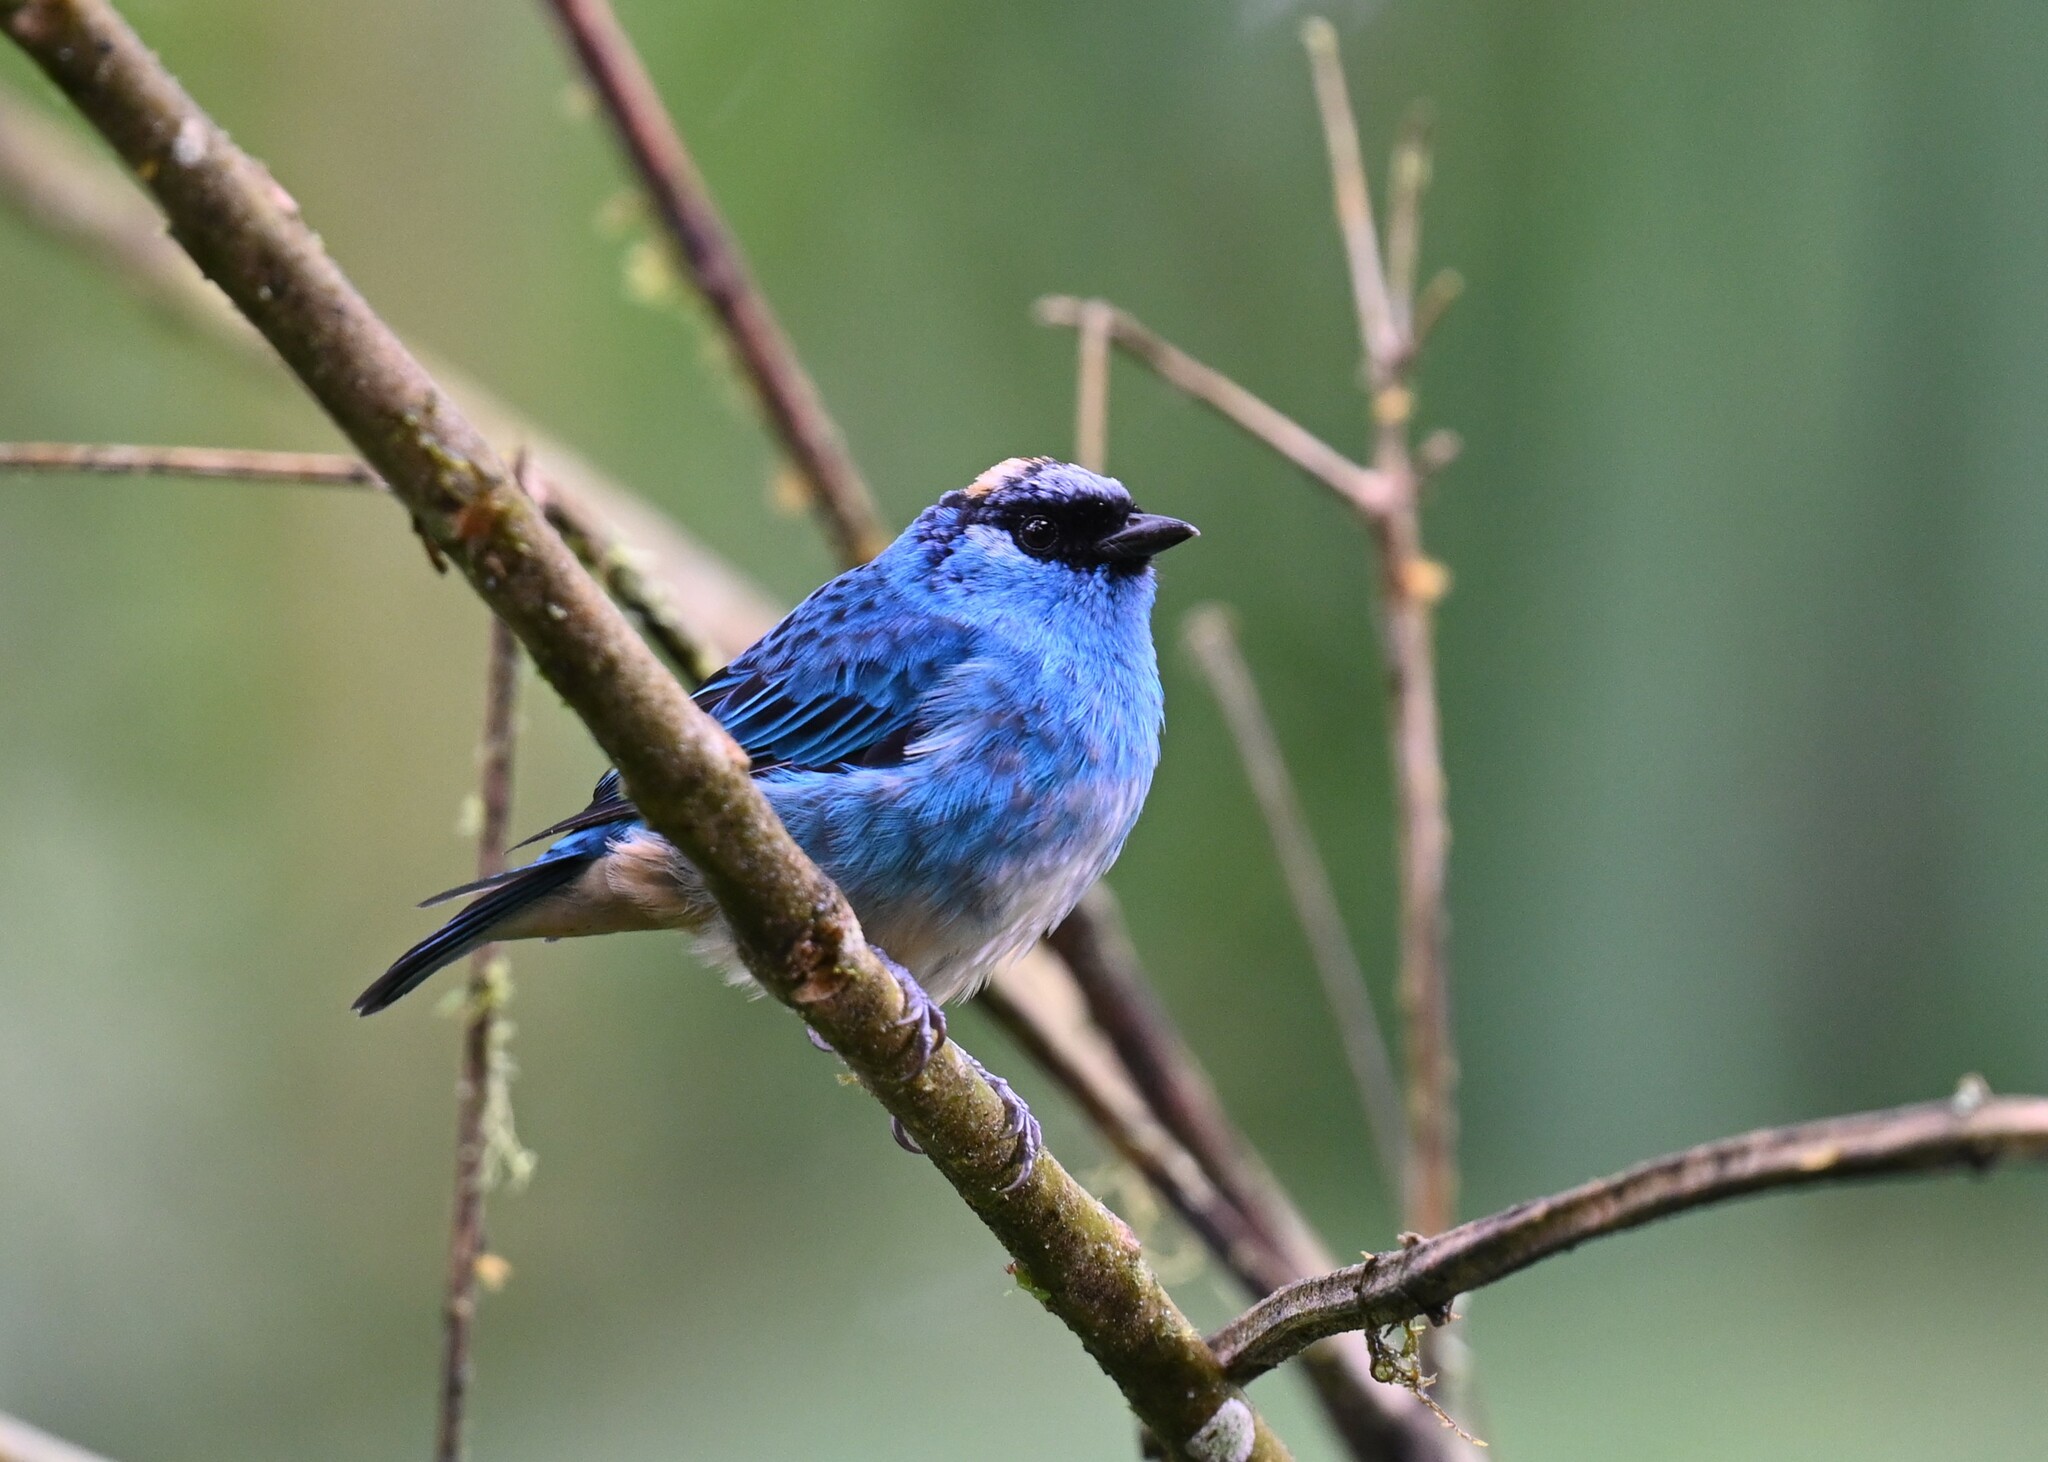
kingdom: Animalia
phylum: Chordata
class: Aves
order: Passeriformes
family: Thraupidae
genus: Chalcothraupis
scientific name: Chalcothraupis ruficervix
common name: Golden-naped tanager
